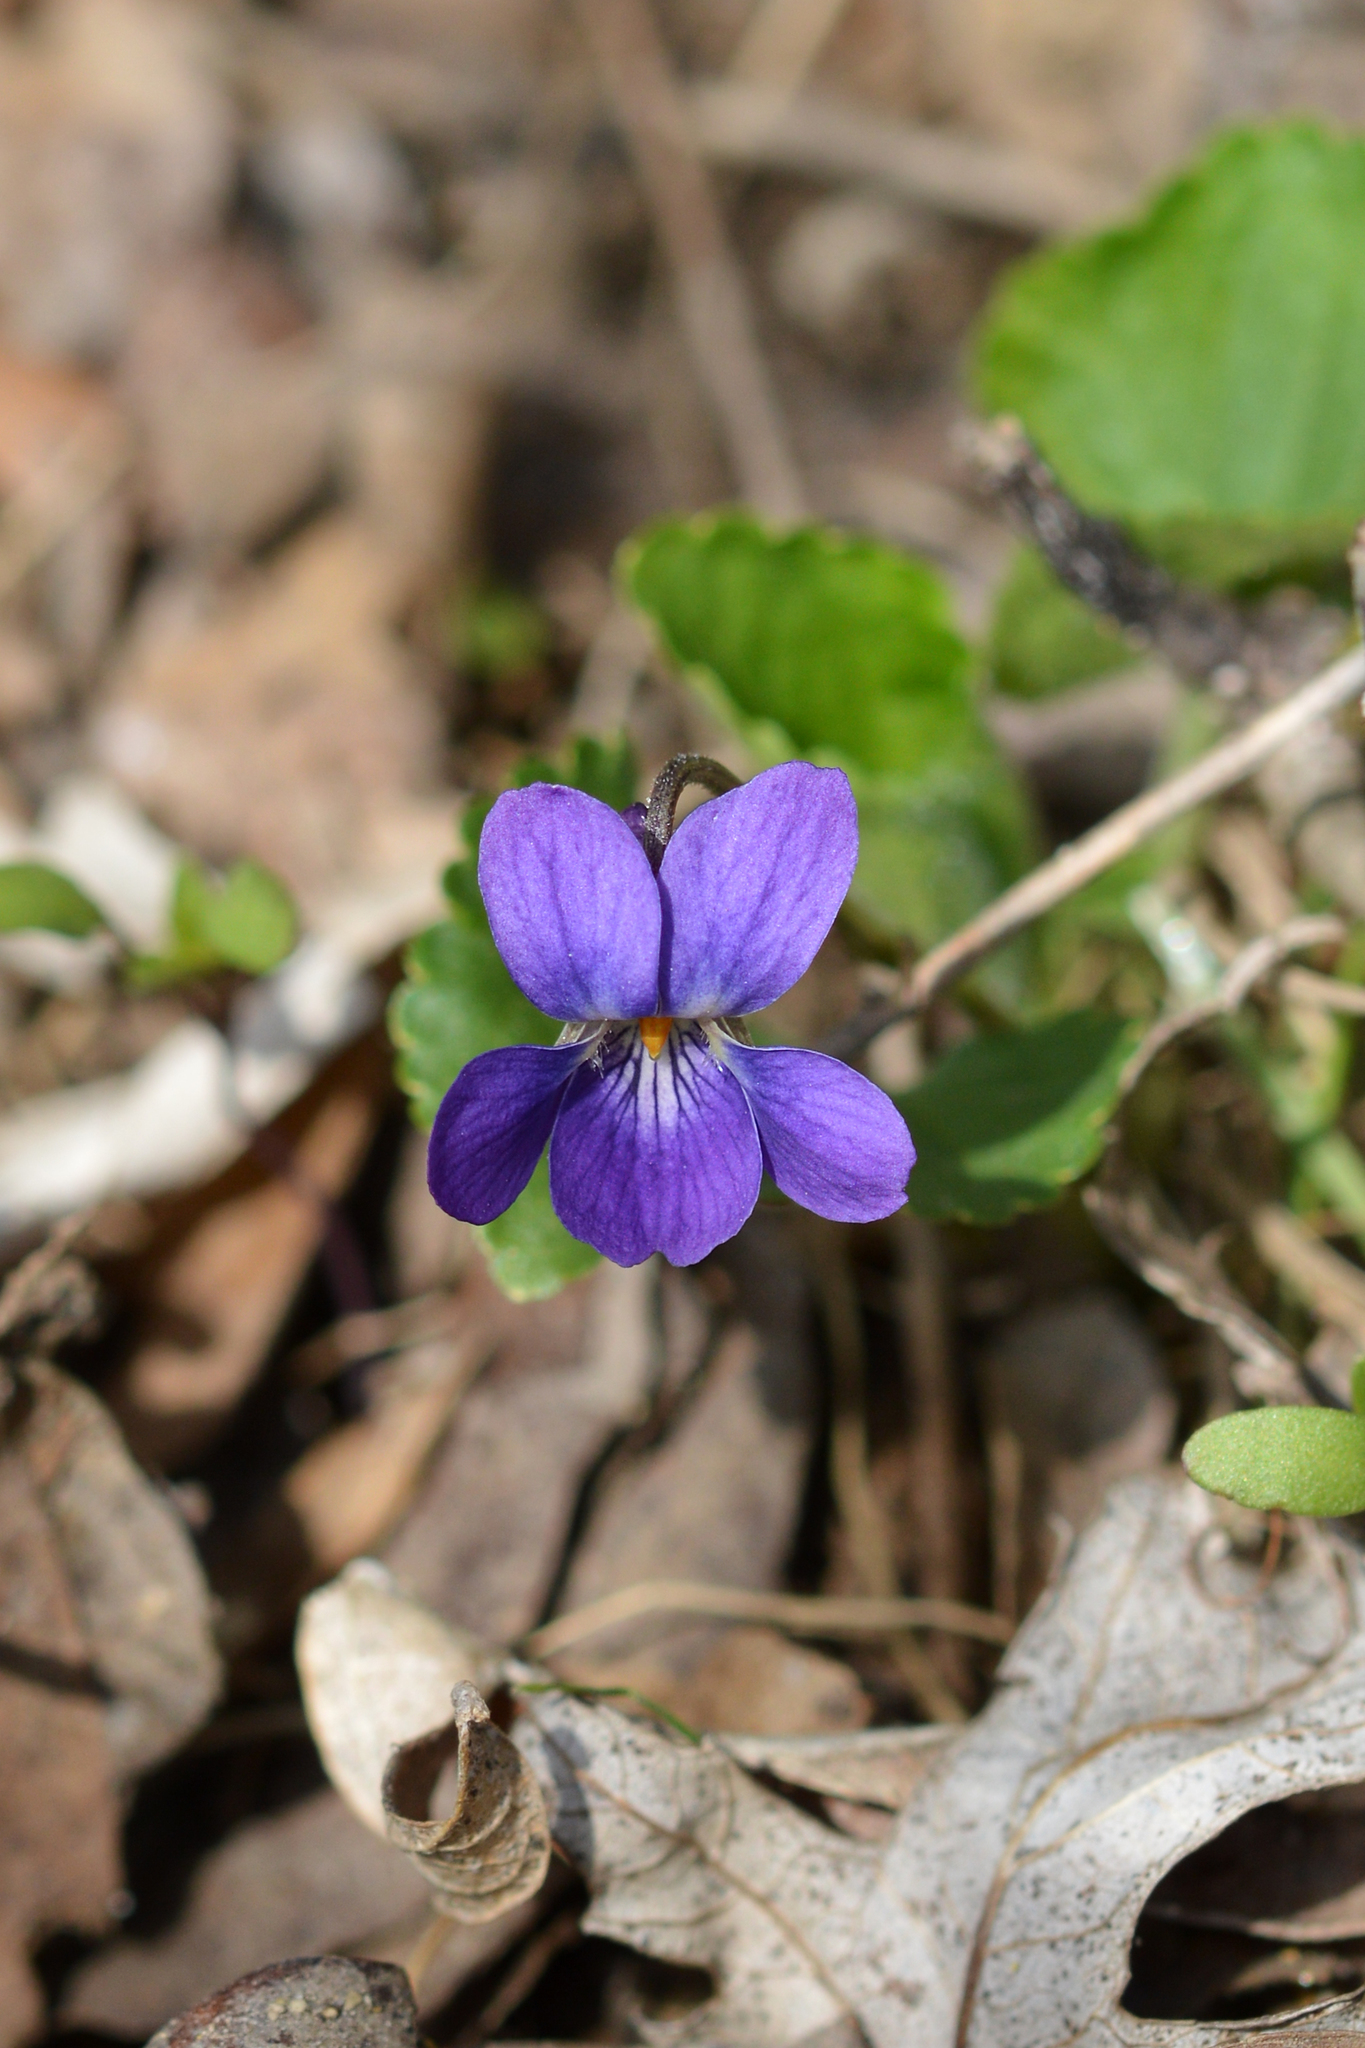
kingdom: Plantae
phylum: Tracheophyta
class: Magnoliopsida
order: Malpighiales
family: Violaceae
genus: Viola
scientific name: Viola odorata
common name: Sweet violet
